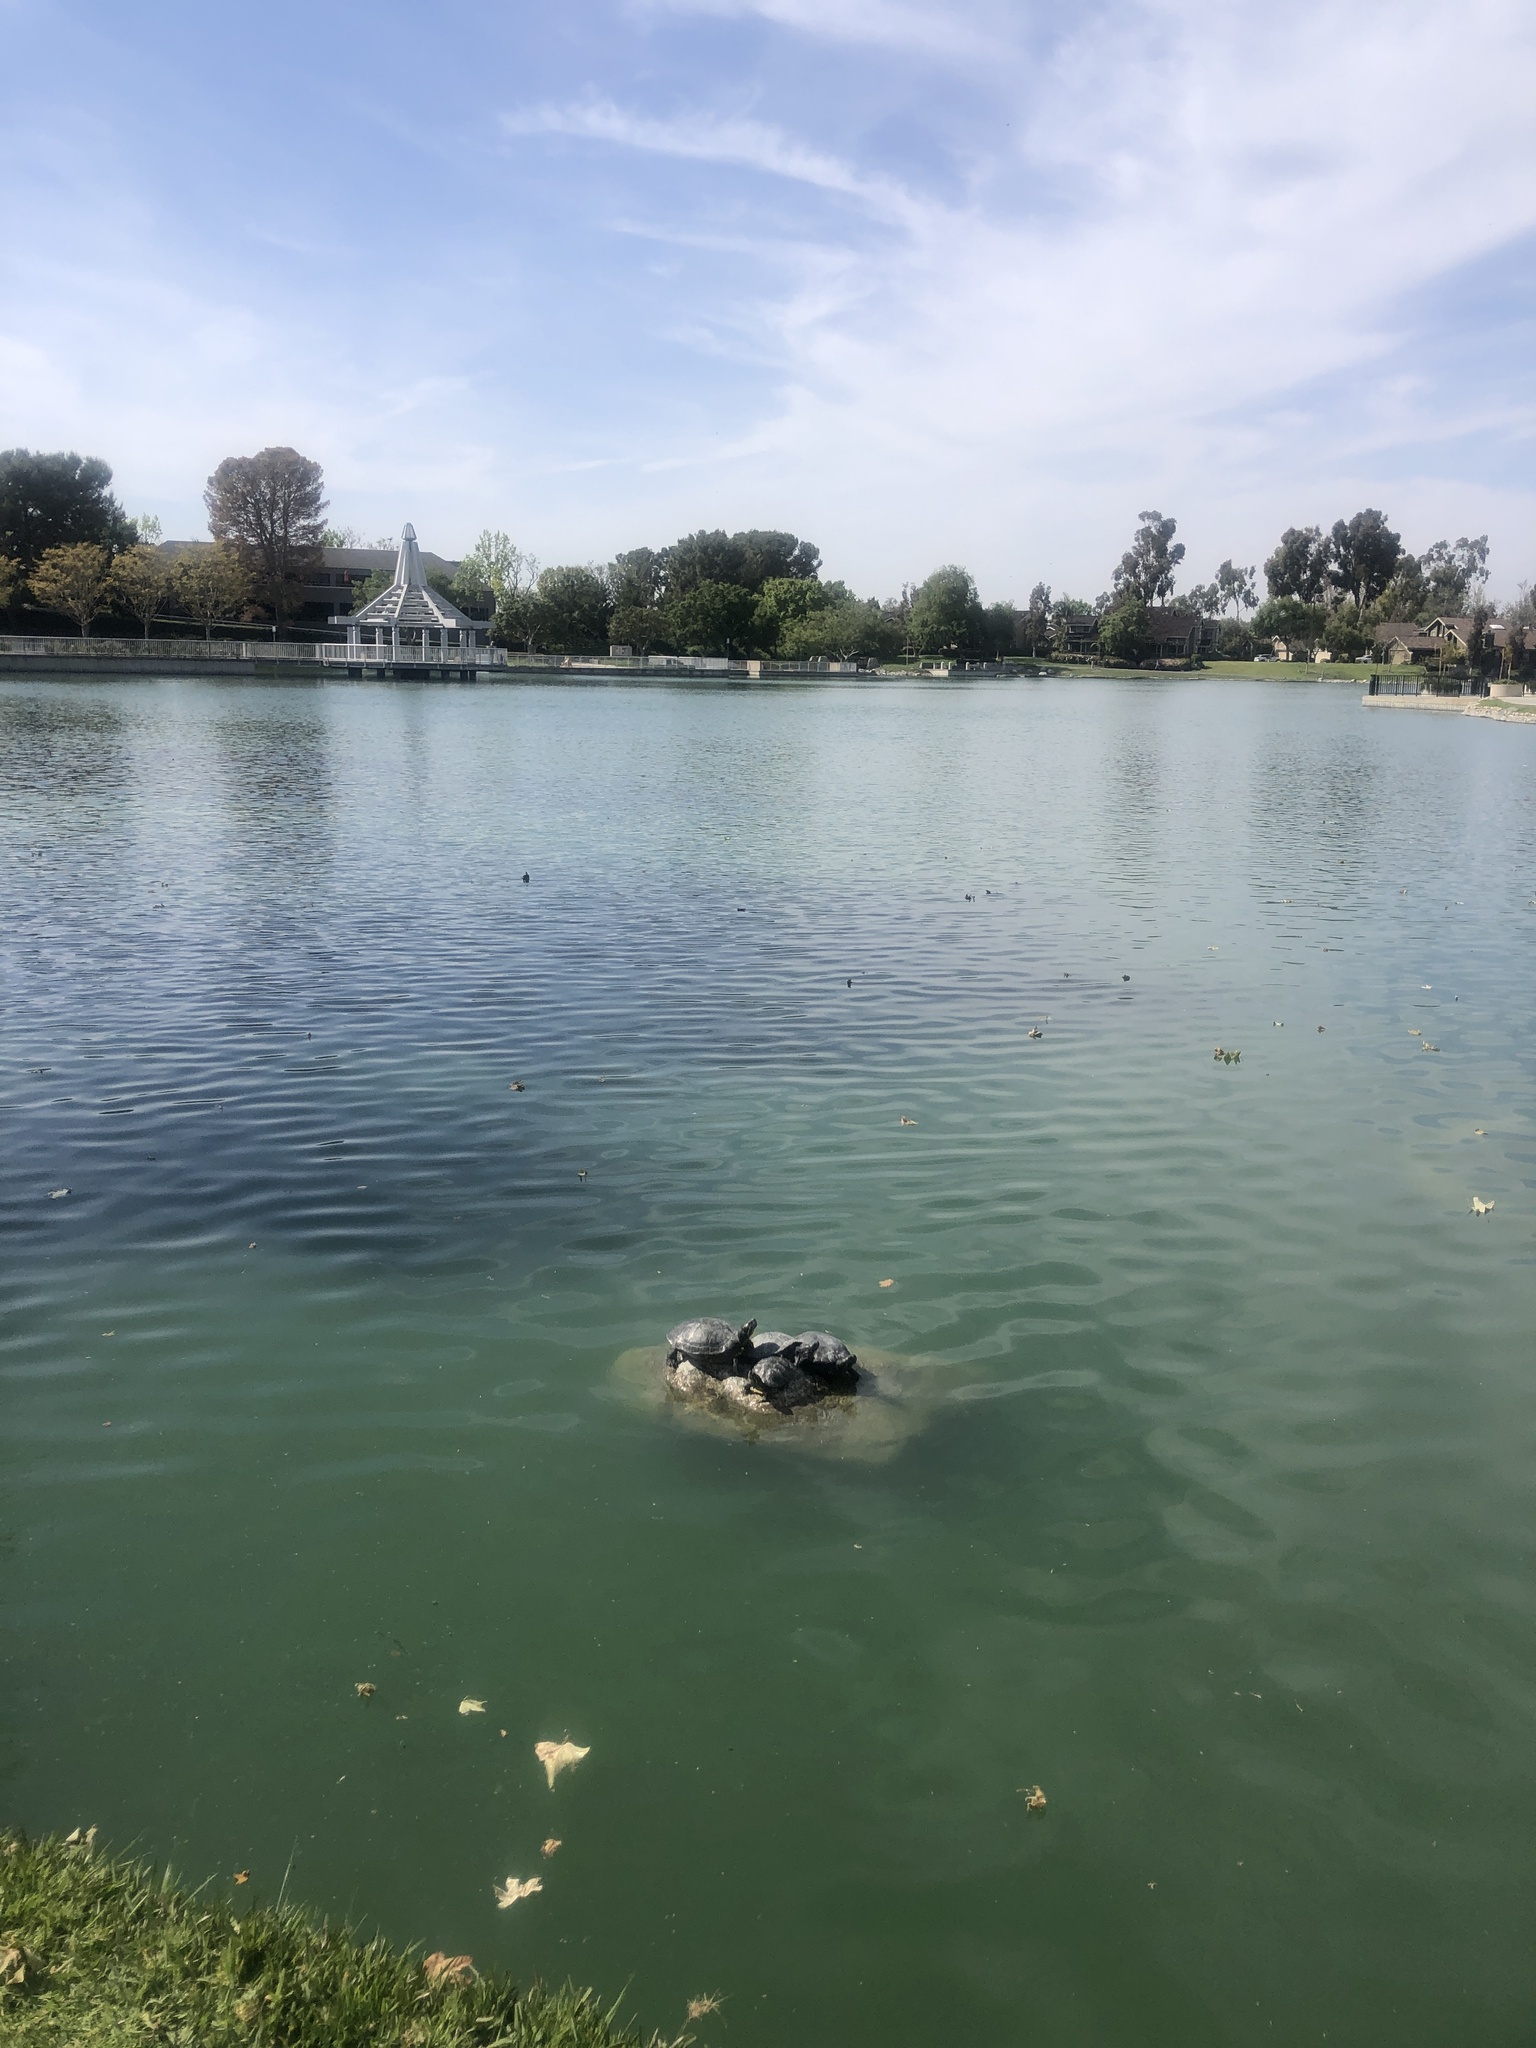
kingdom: Animalia
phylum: Chordata
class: Testudines
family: Emydidae
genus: Trachemys
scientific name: Trachemys scripta
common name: Slider
